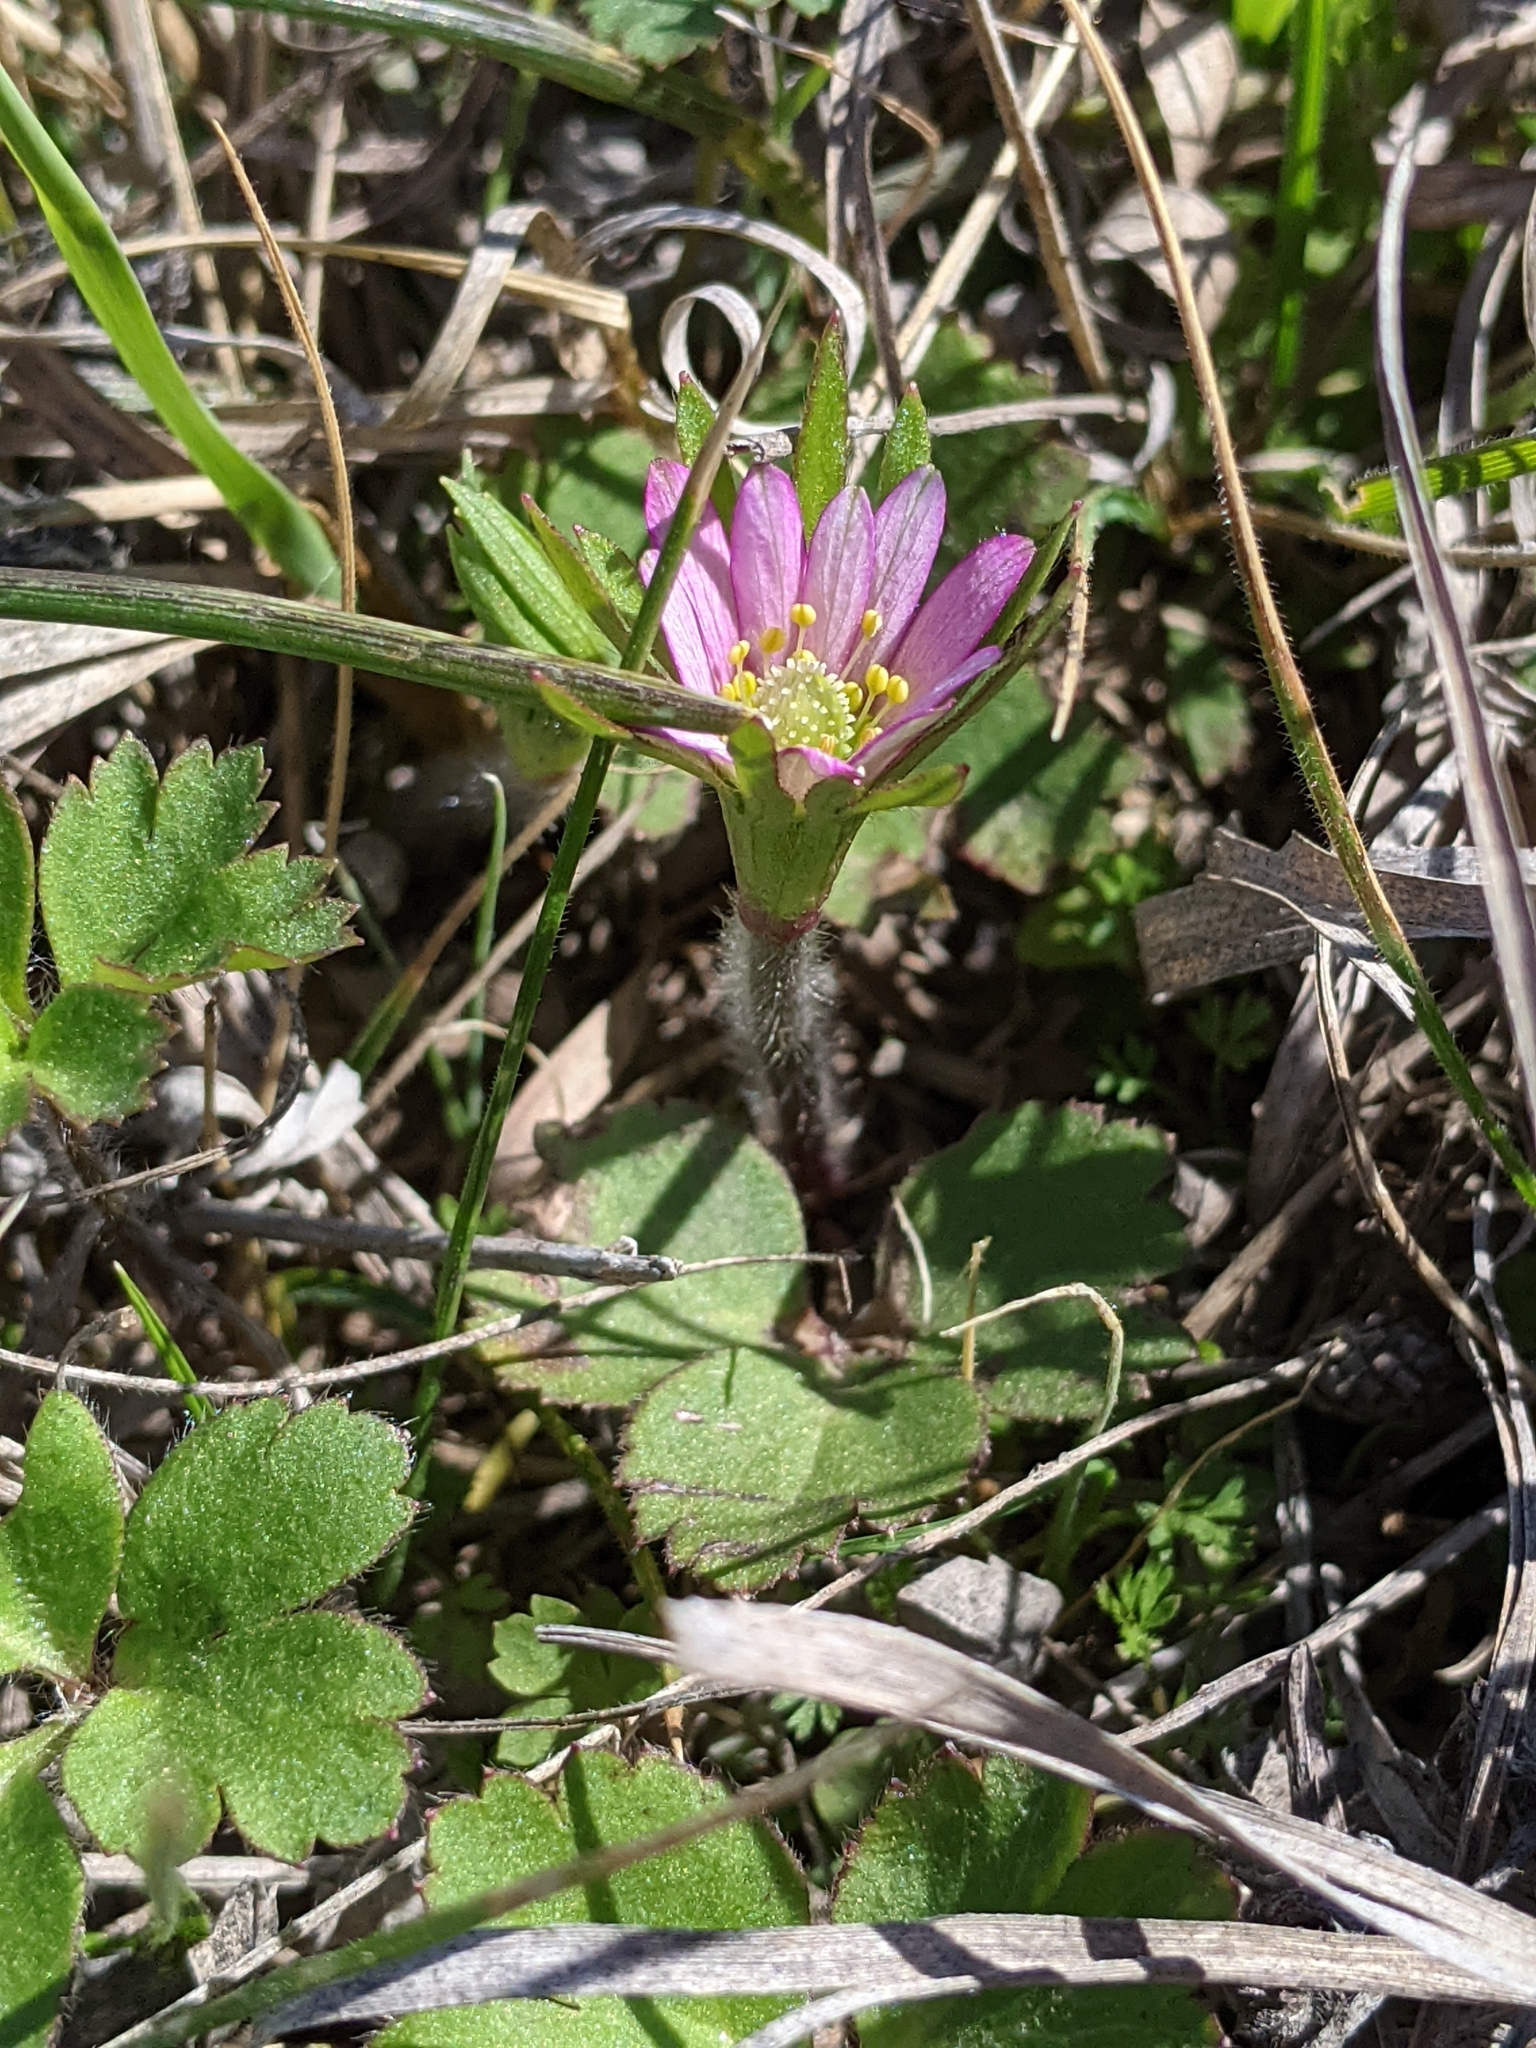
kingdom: Plantae
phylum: Tracheophyta
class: Magnoliopsida
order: Ranunculales
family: Ranunculaceae
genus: Anemone
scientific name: Anemone berlandieri
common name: Ten-petal anemone
